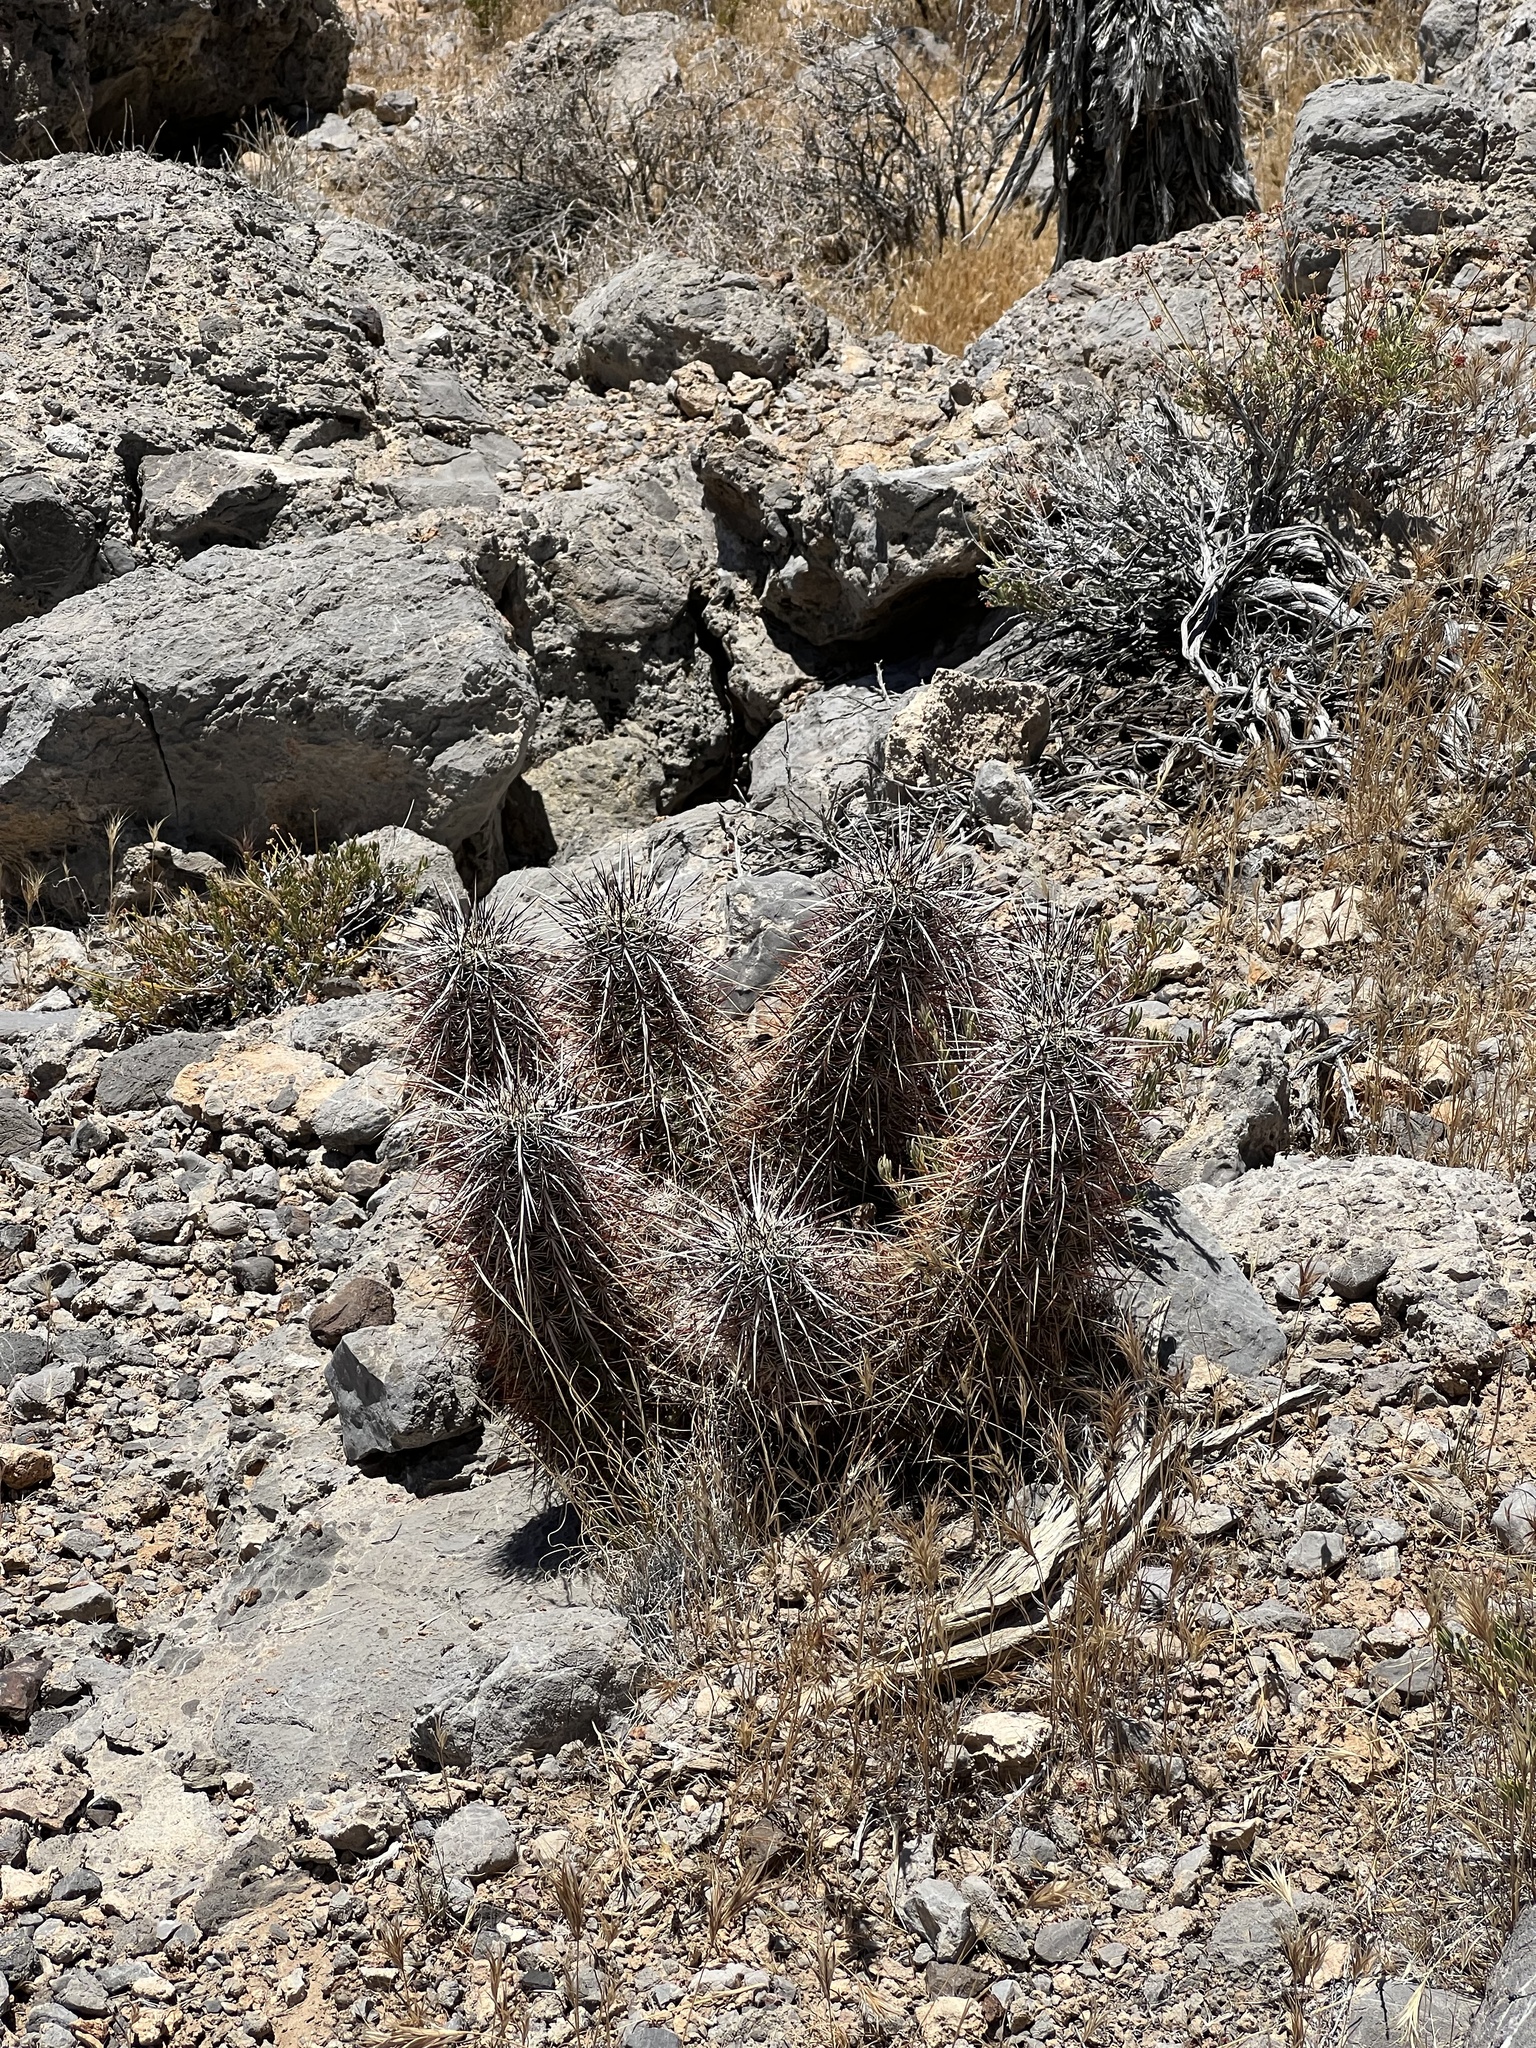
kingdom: Plantae
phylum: Tracheophyta
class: Magnoliopsida
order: Caryophyllales
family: Cactaceae
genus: Echinocereus
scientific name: Echinocereus engelmannii
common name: Engelmann's hedgehog cactus
